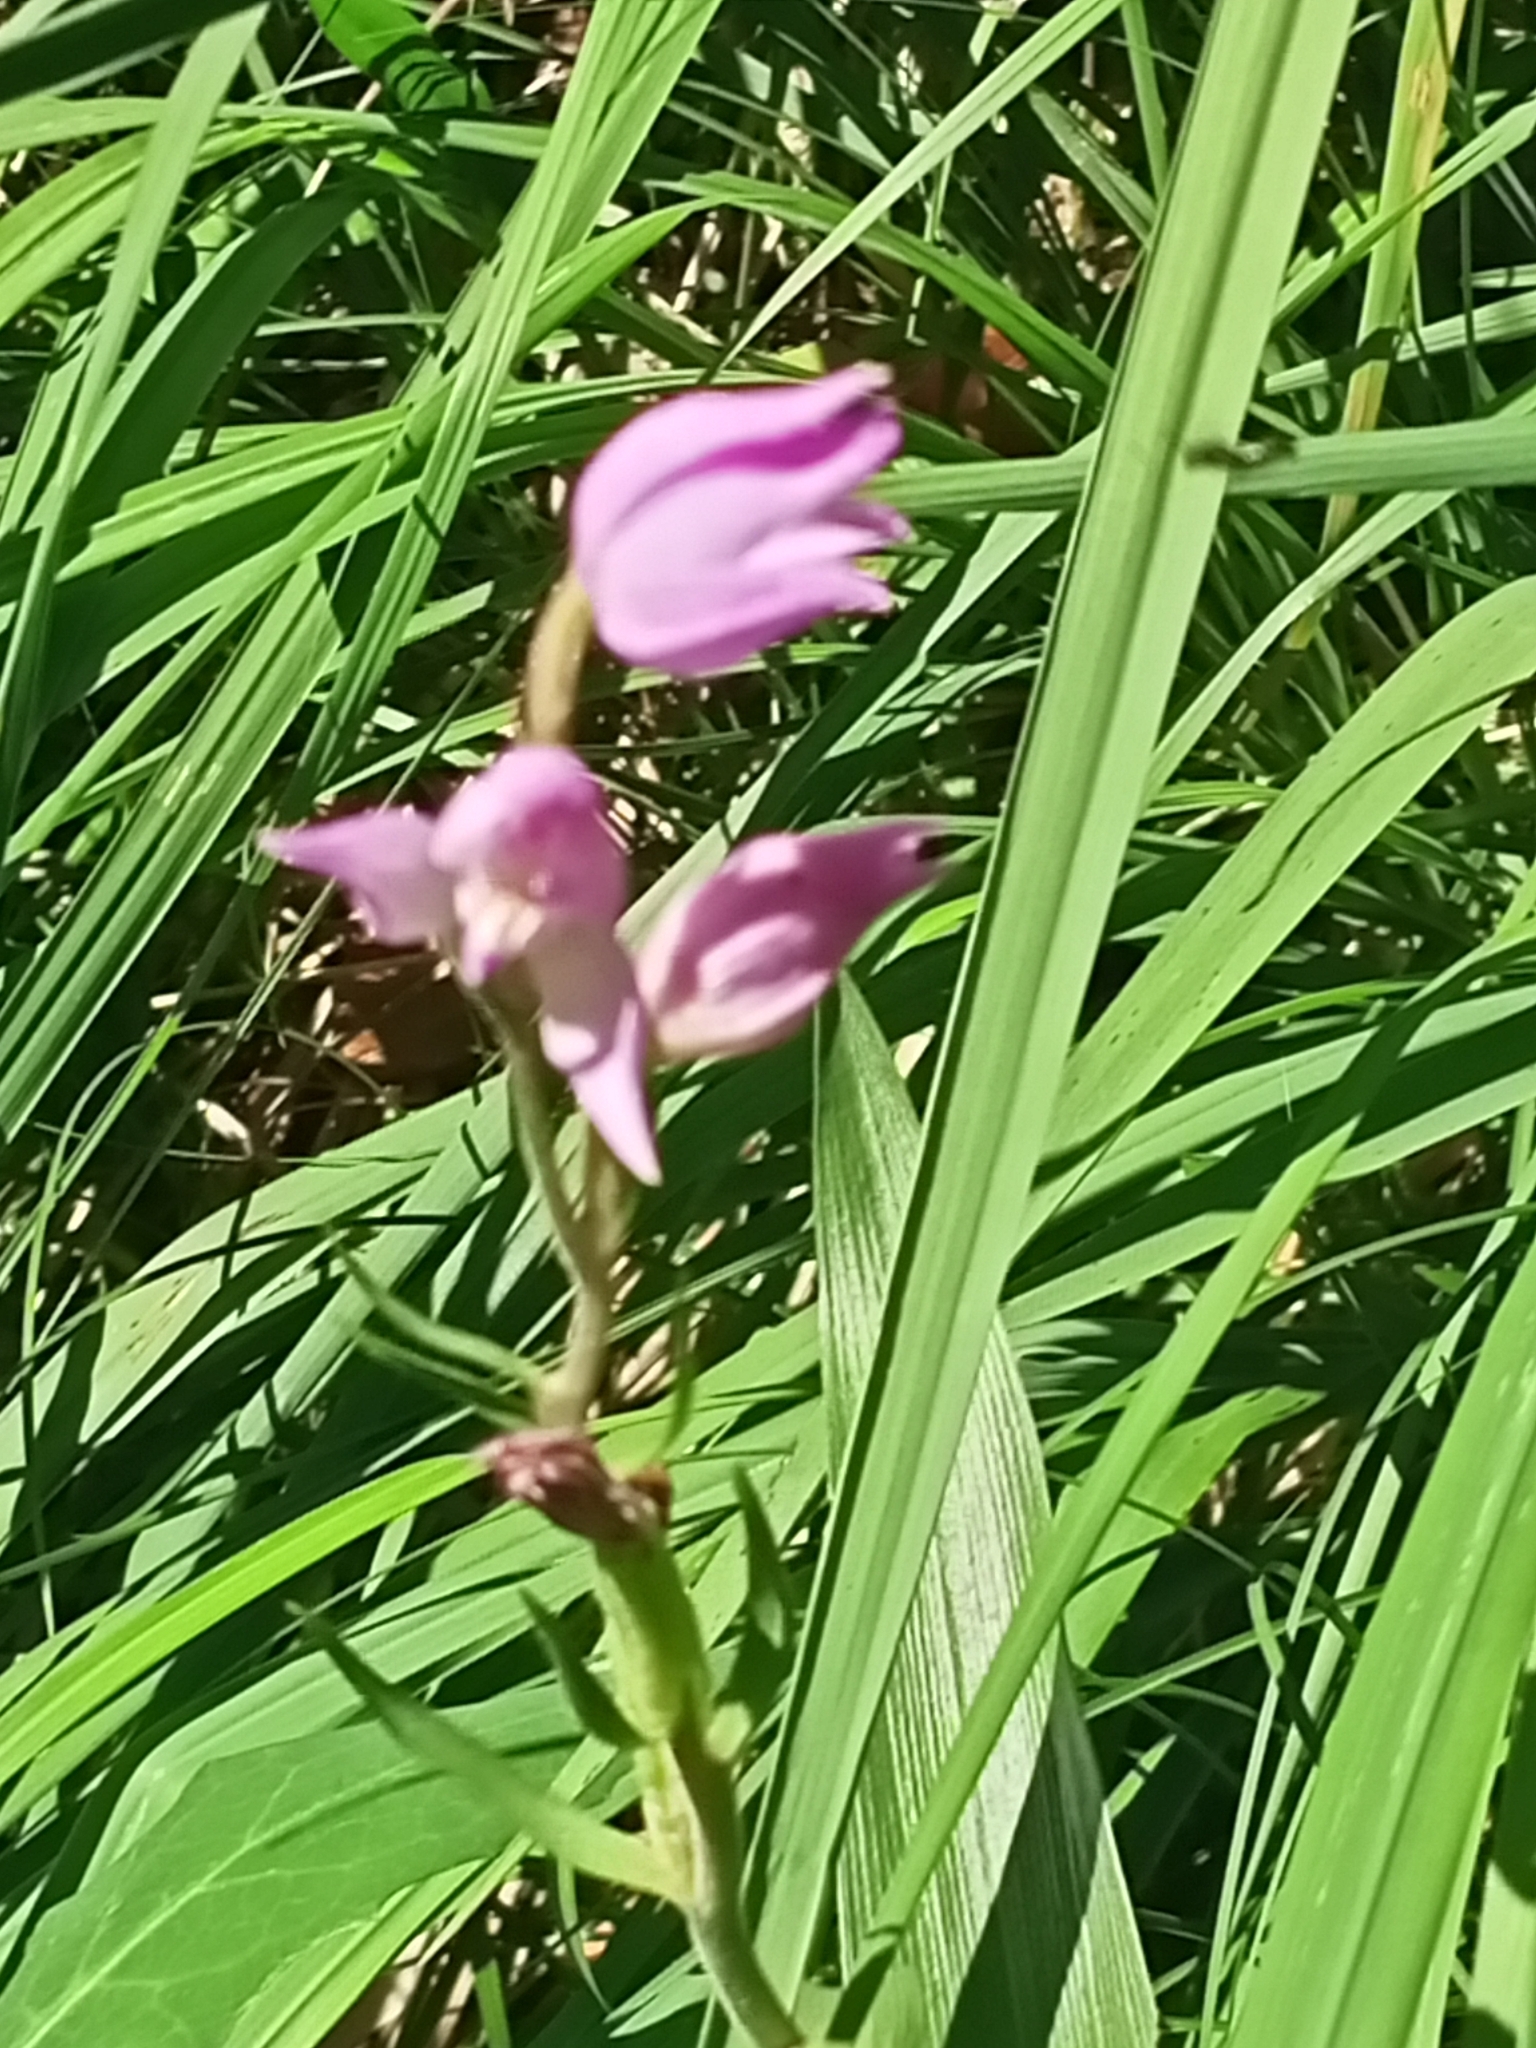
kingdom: Plantae
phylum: Tracheophyta
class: Liliopsida
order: Asparagales
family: Orchidaceae
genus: Cephalanthera
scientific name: Cephalanthera rubra
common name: Red helleborine
